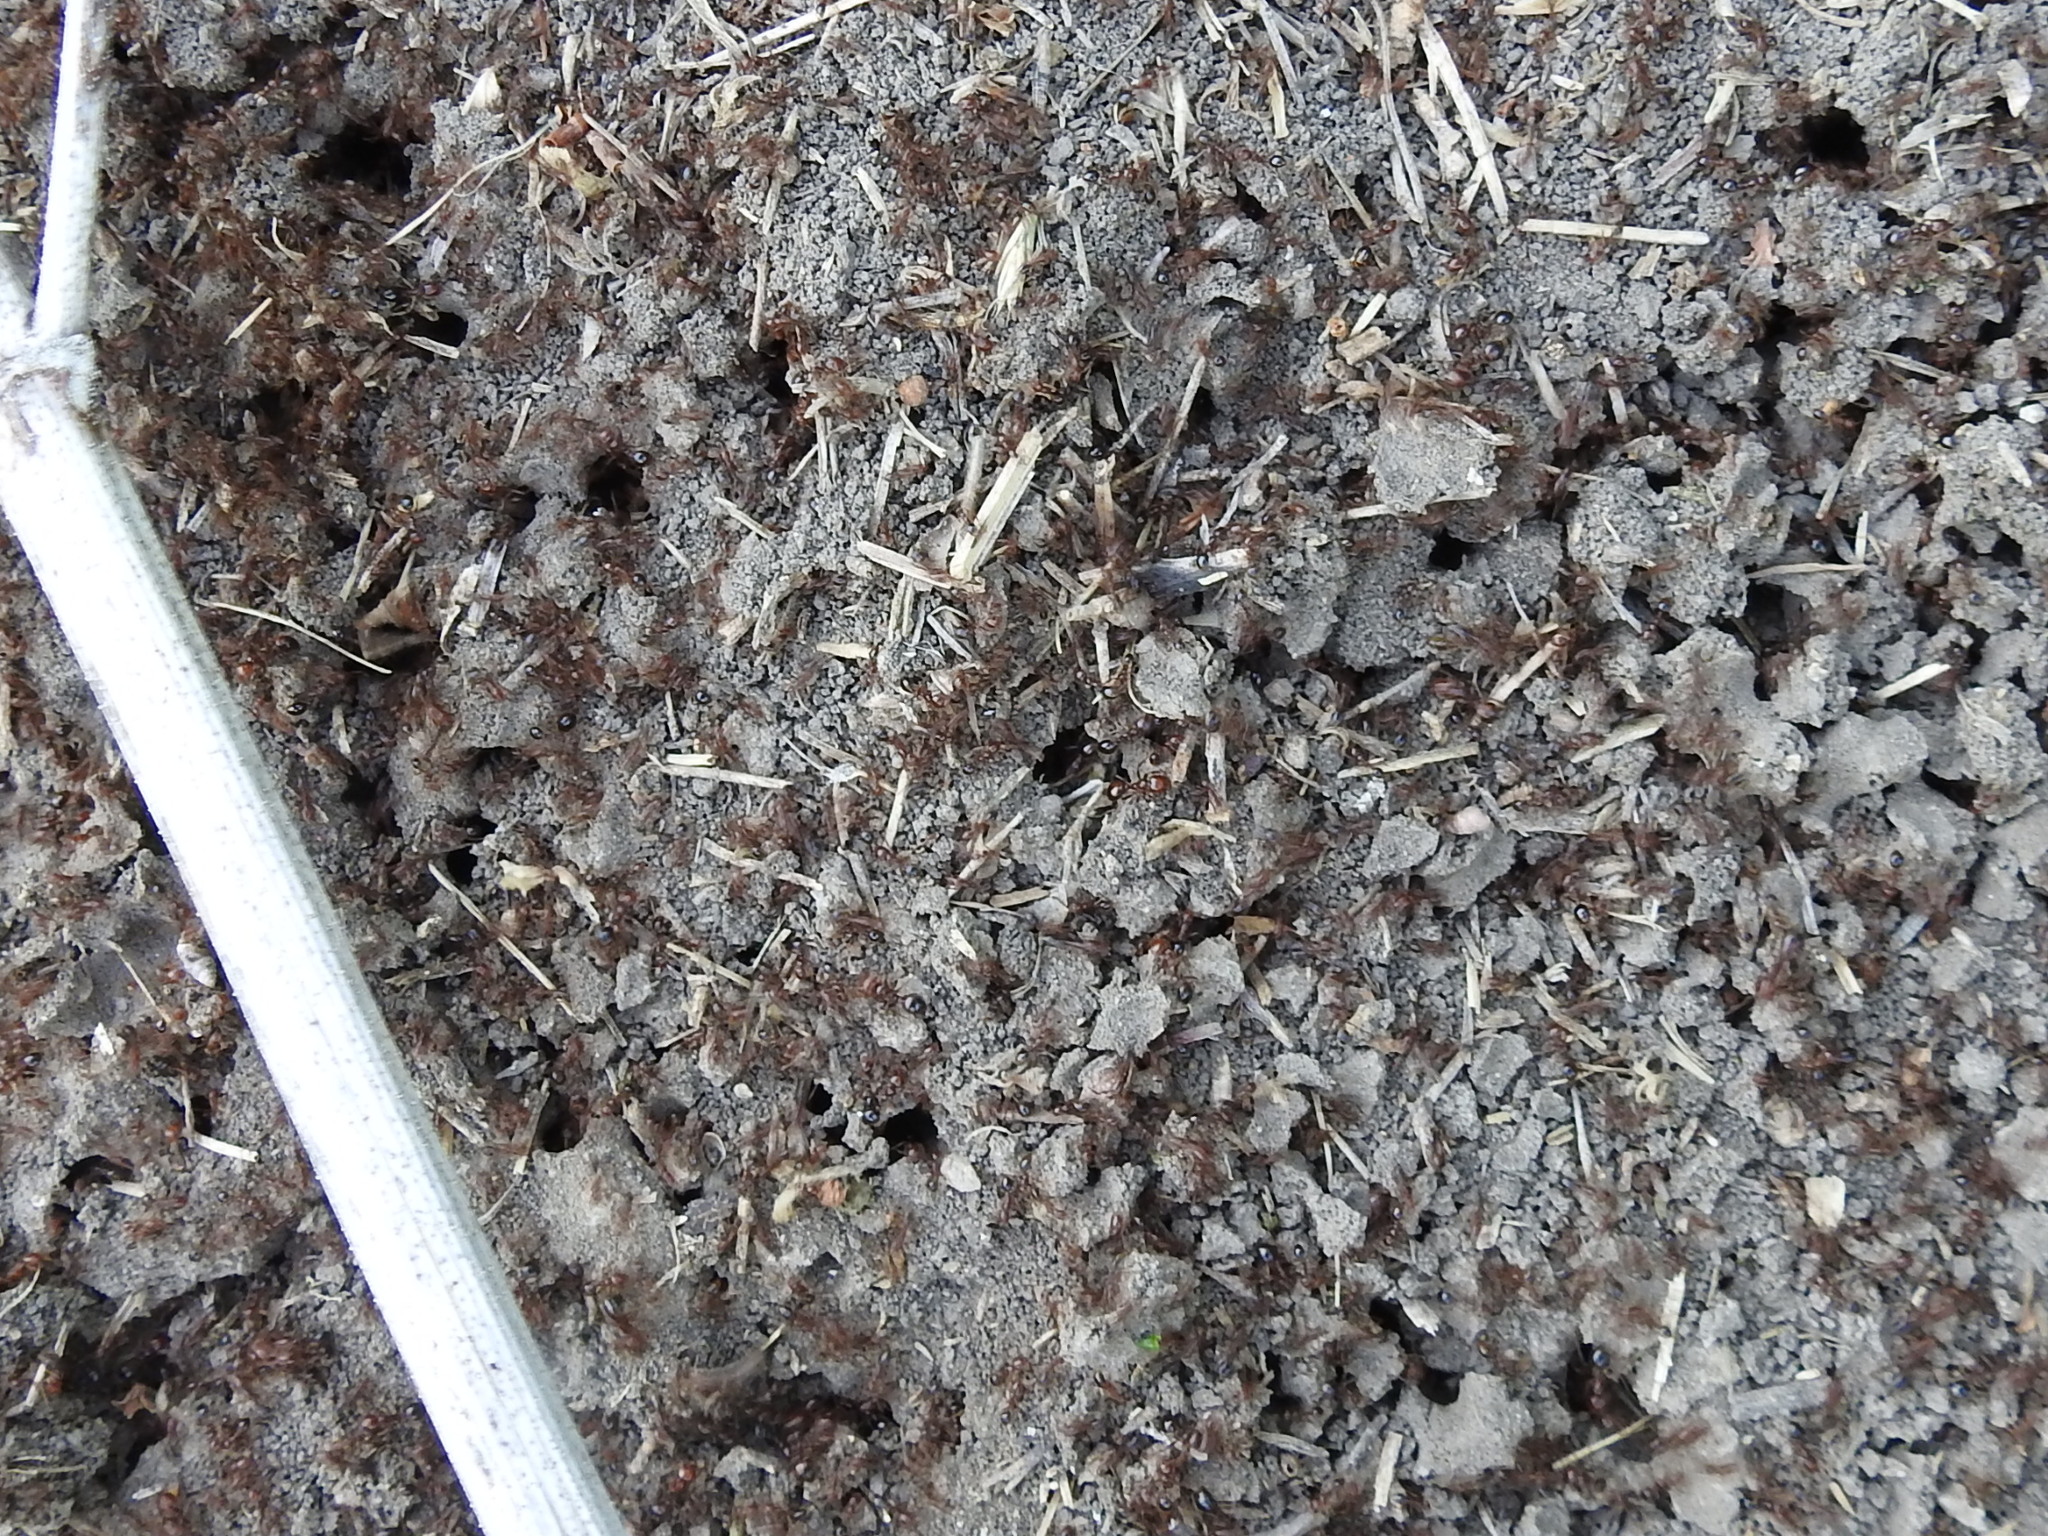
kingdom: Animalia
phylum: Arthropoda
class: Insecta
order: Hymenoptera
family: Formicidae
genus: Solenopsis
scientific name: Solenopsis invicta
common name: Red imported fire ant
